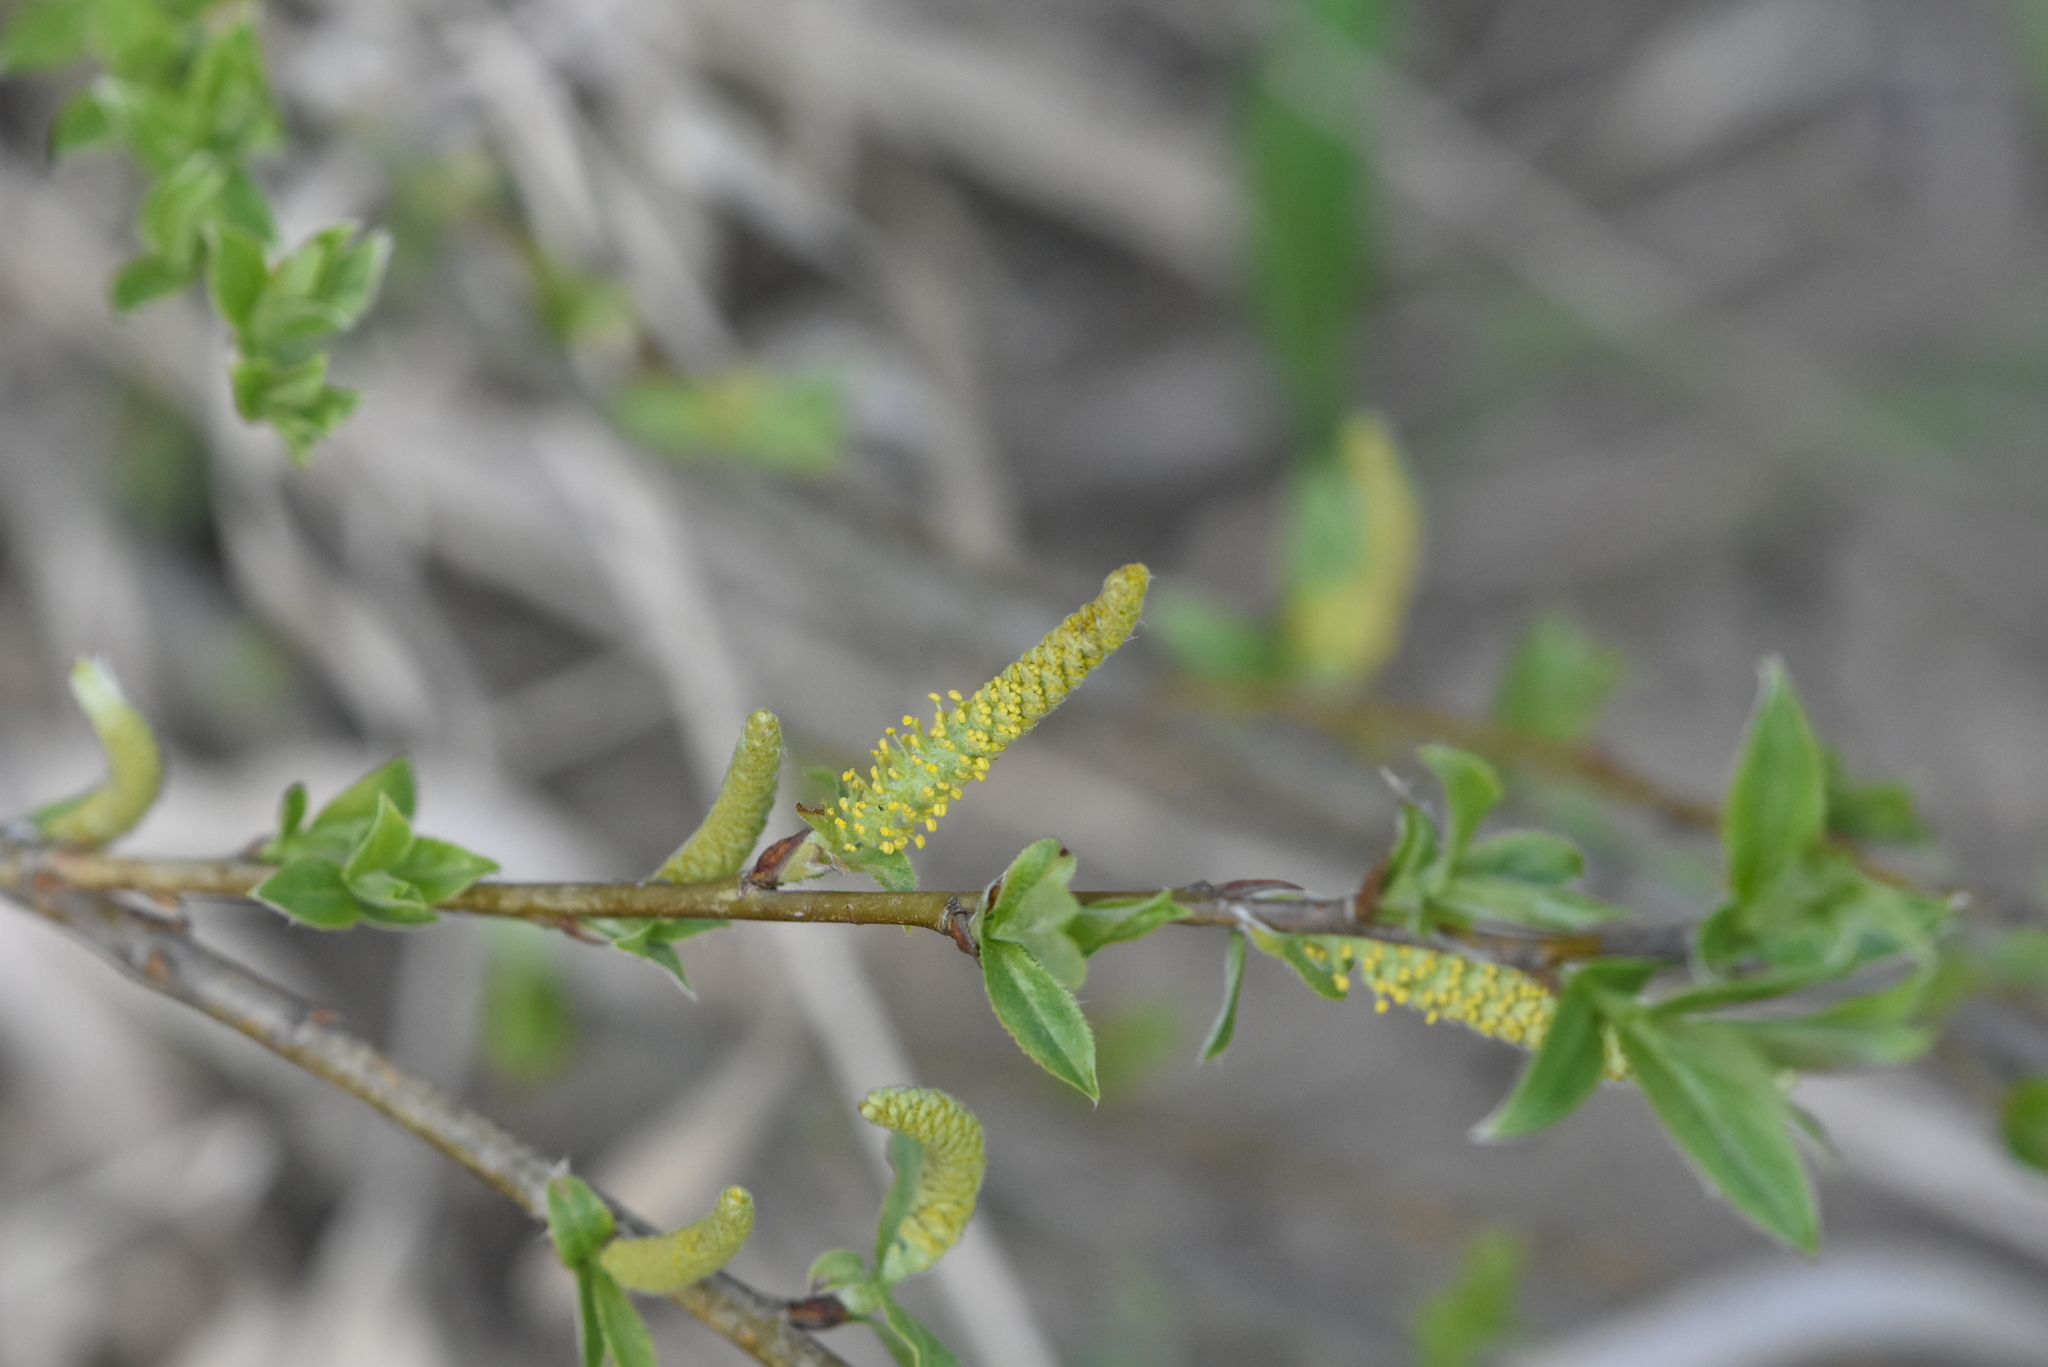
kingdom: Plantae
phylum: Tracheophyta
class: Magnoliopsida
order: Malpighiales
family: Salicaceae
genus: Salix
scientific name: Salix triandra
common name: Almond willow
